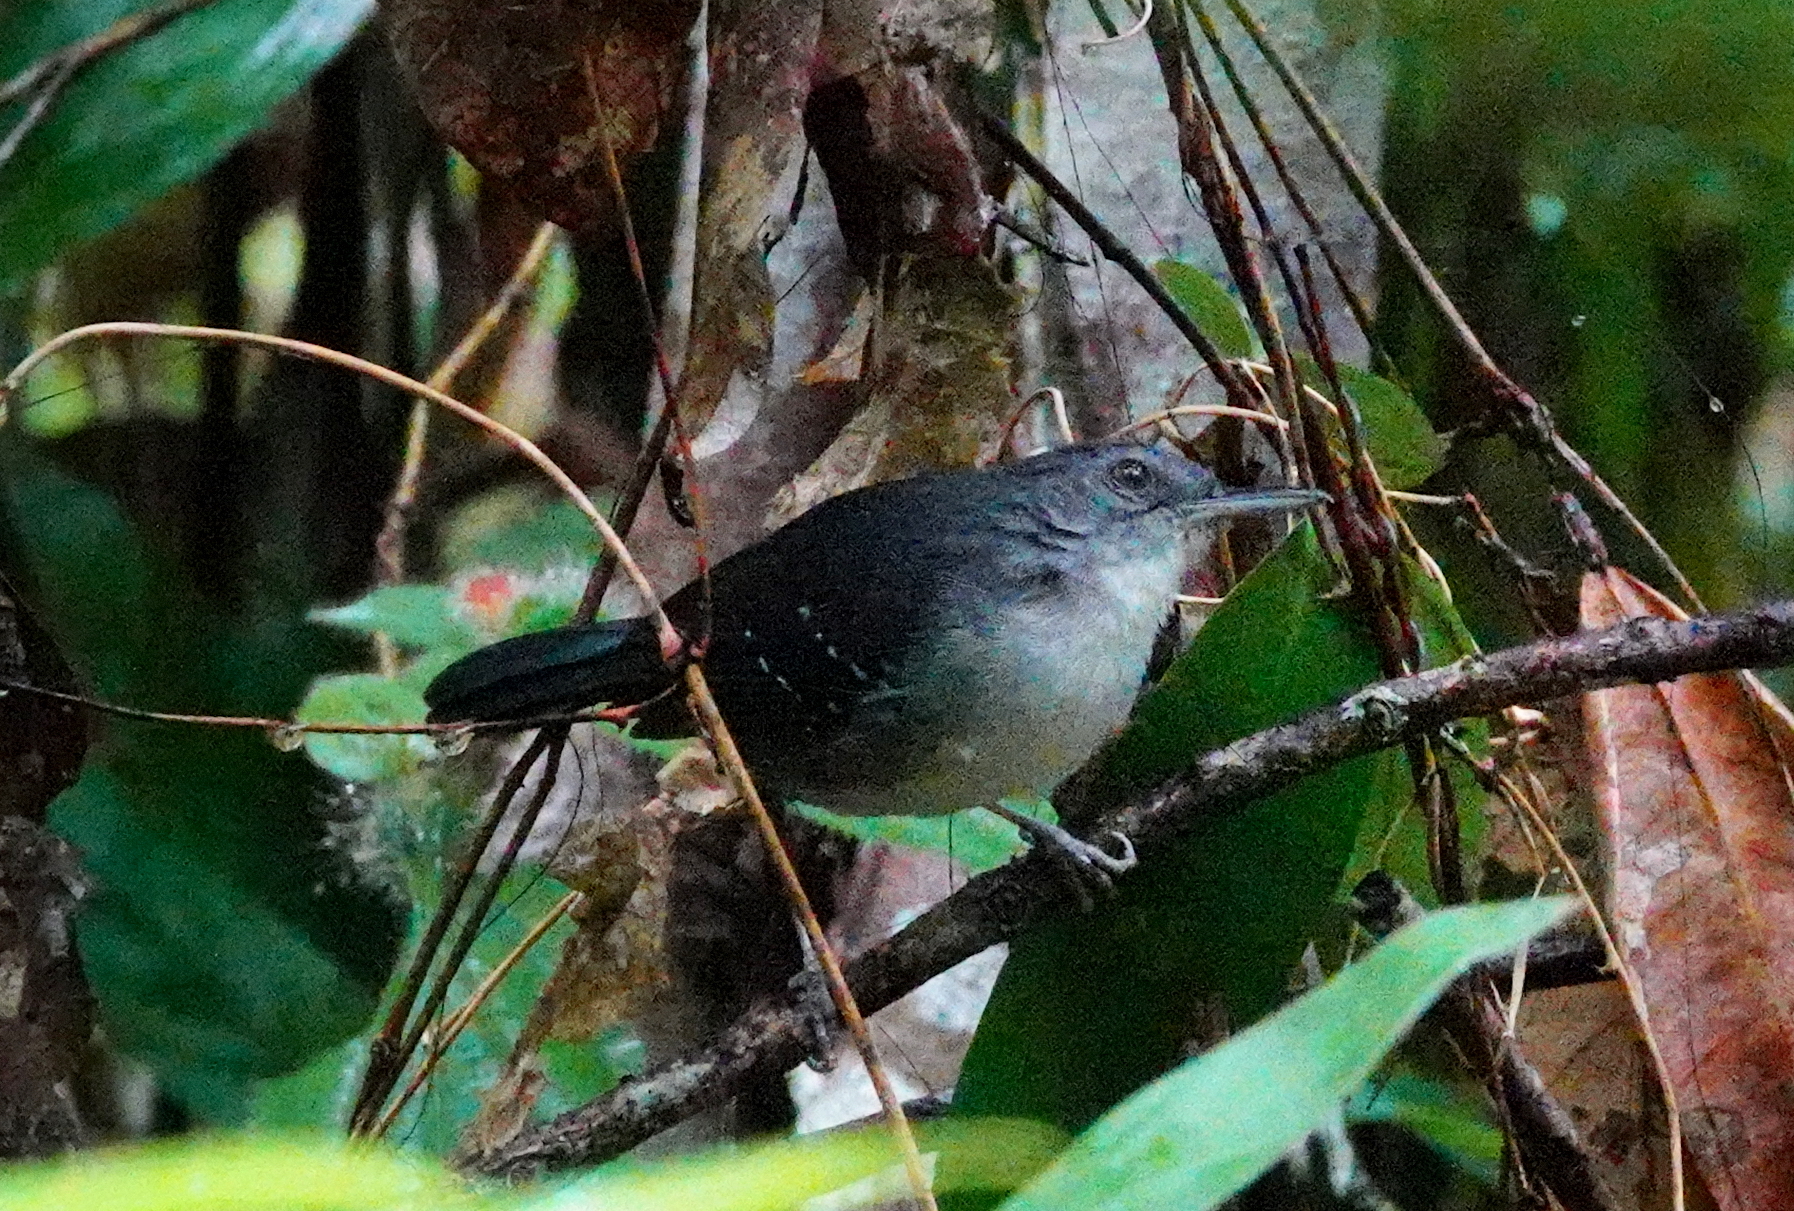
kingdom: Animalia
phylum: Chordata
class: Aves
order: Passeriformes
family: Thamnophilidae
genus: Myrmeciza
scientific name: Myrmeciza disjuncta
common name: Yapacana antbird
